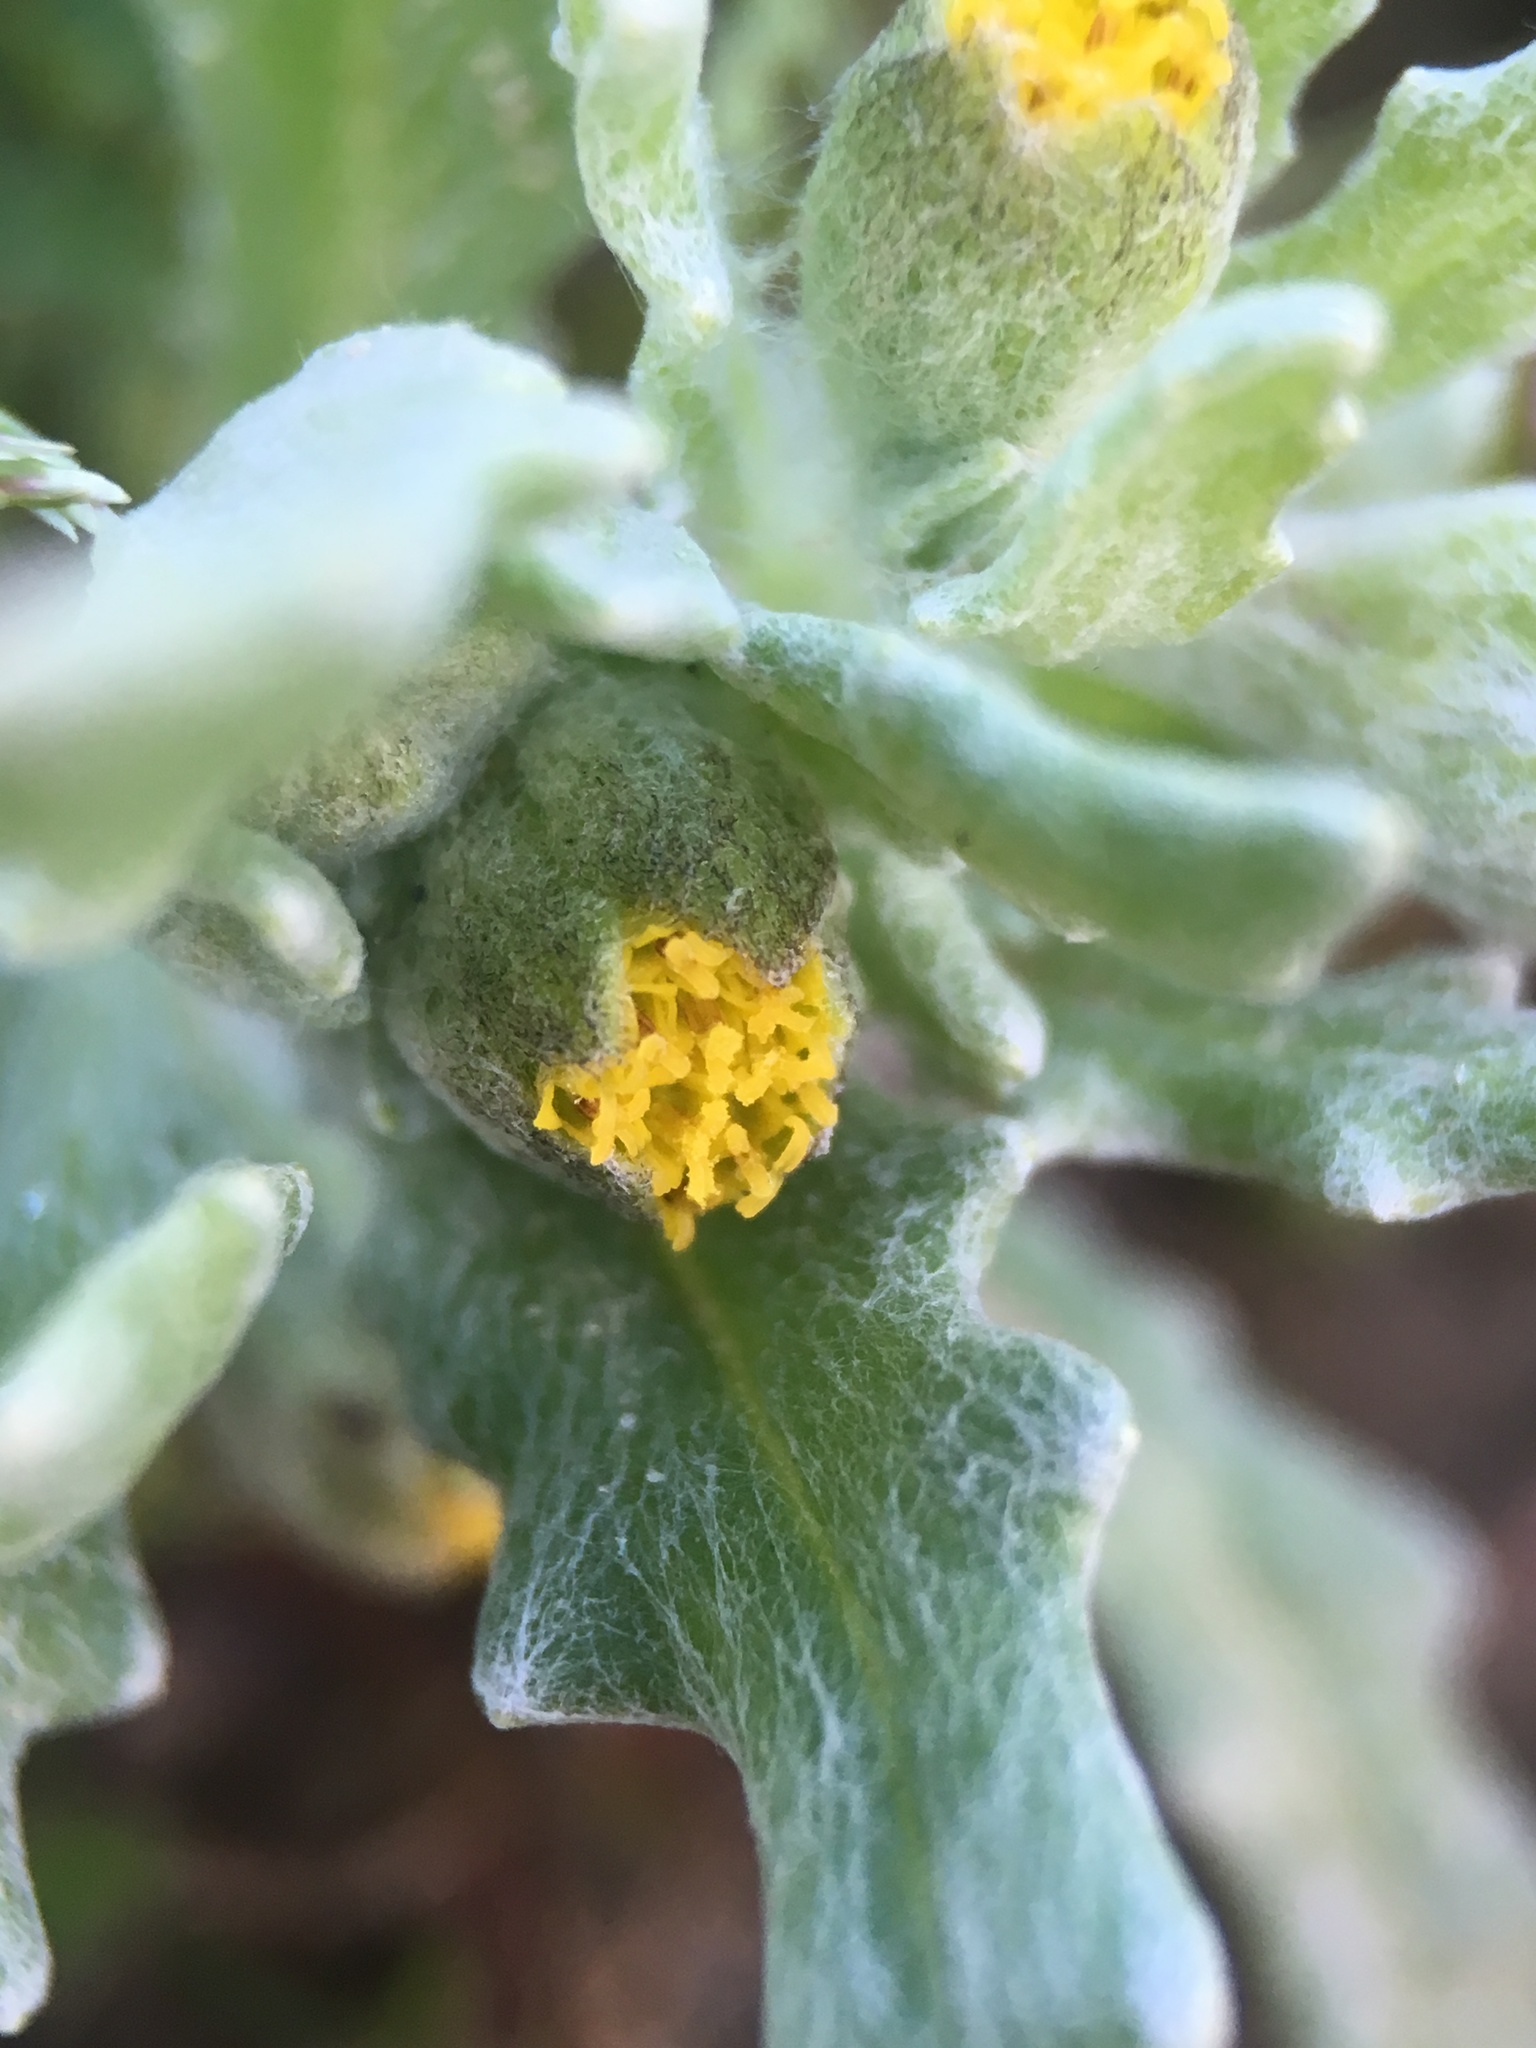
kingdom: Plantae
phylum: Tracheophyta
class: Magnoliopsida
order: Asterales
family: Asteraceae
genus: Monolopia
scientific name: Monolopia congdonii
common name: San joaquin woolly-threads
